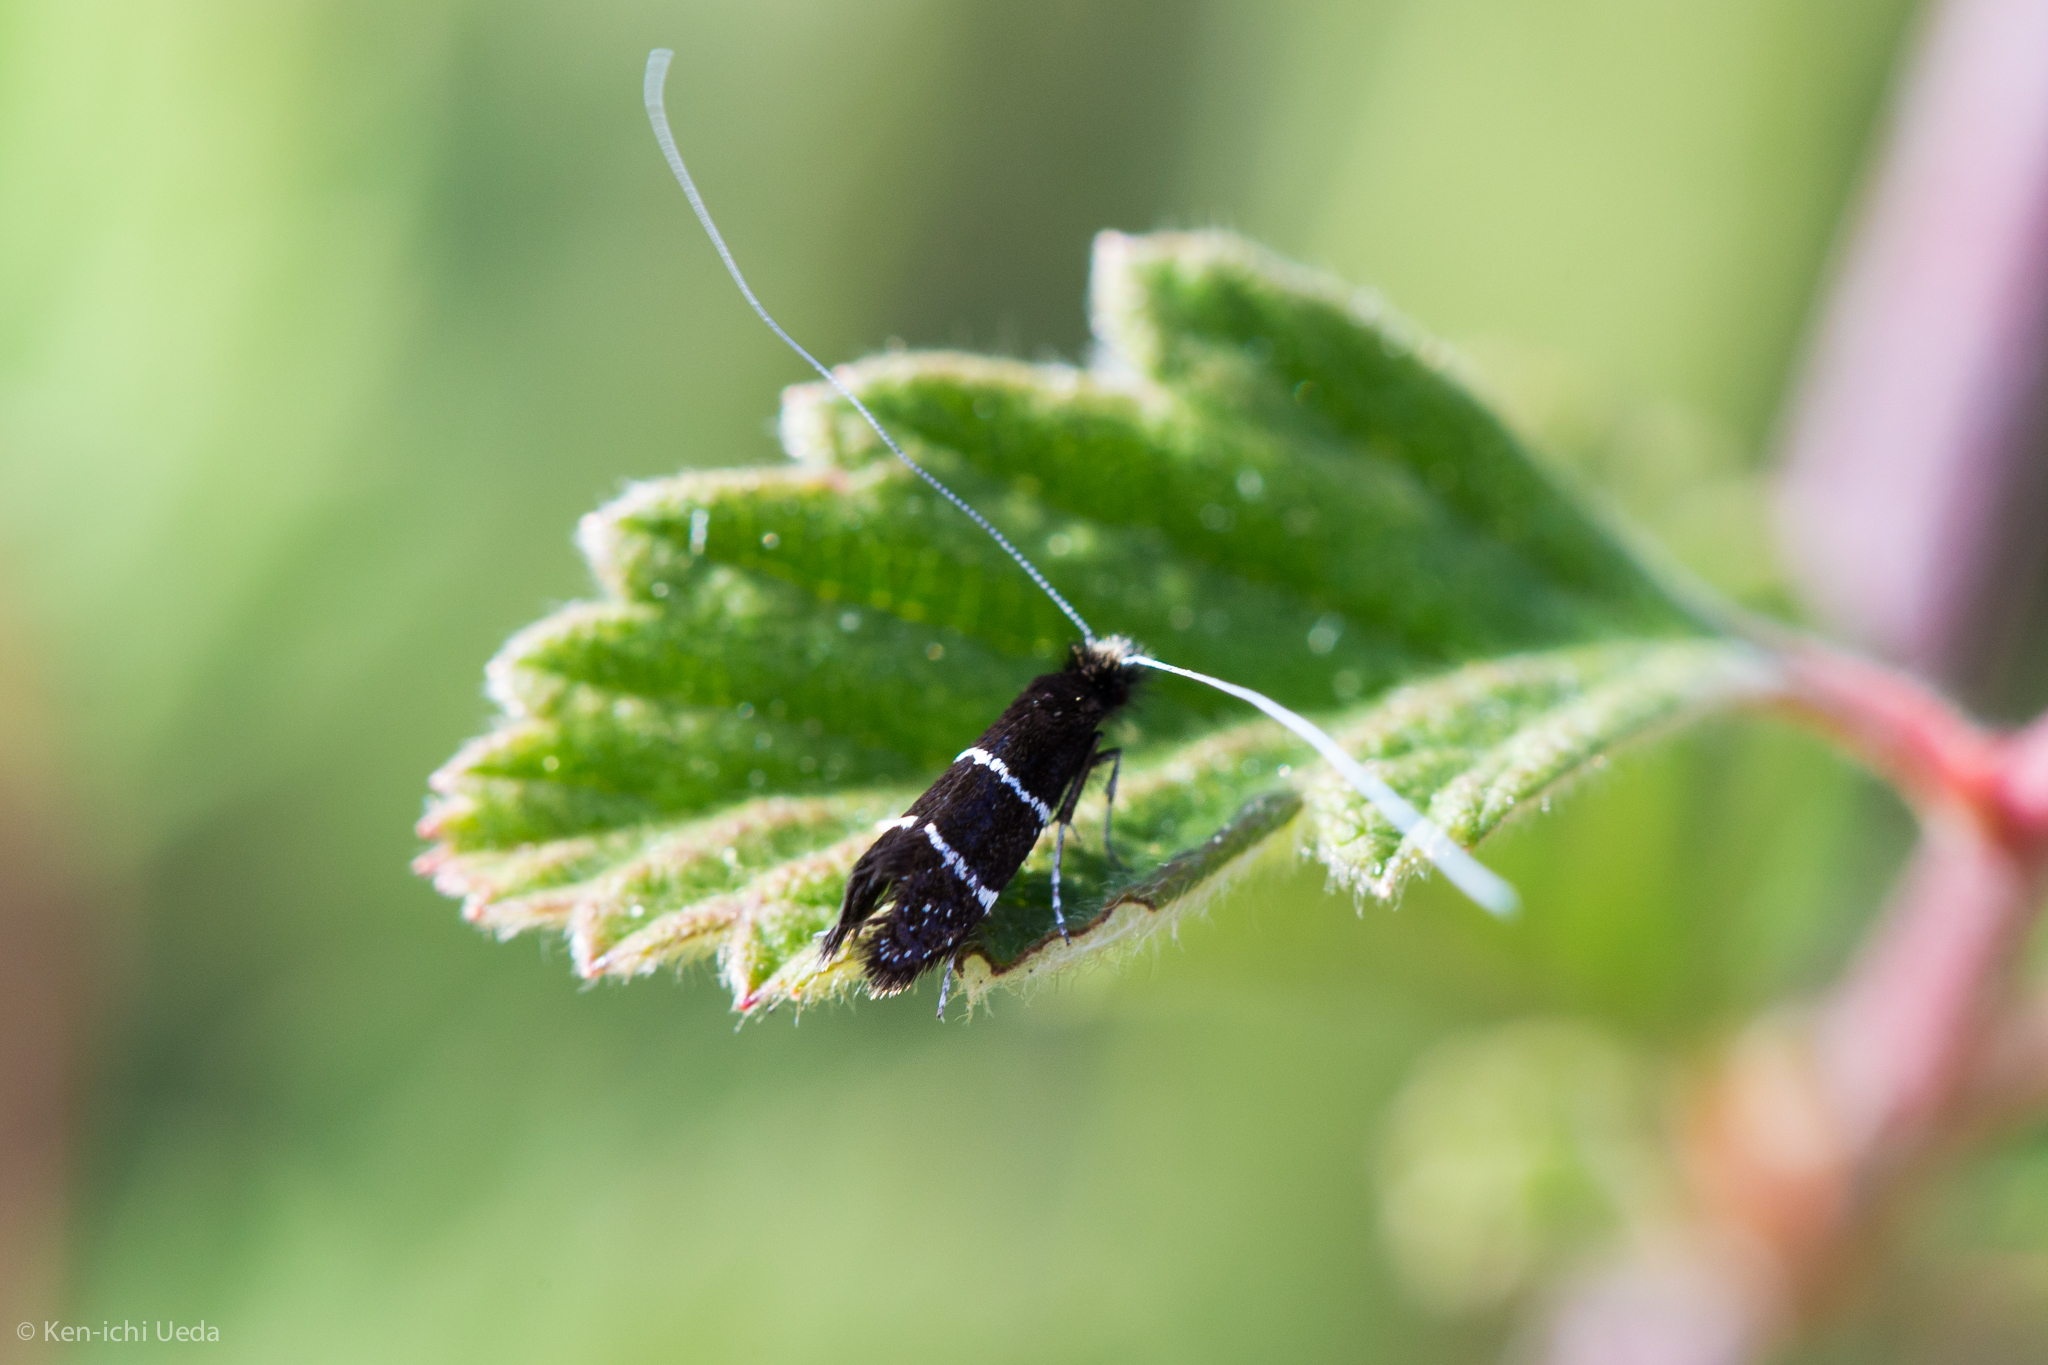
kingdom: Animalia
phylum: Arthropoda
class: Insecta
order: Lepidoptera
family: Adelidae
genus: Adela
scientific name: Adela septentrionella
